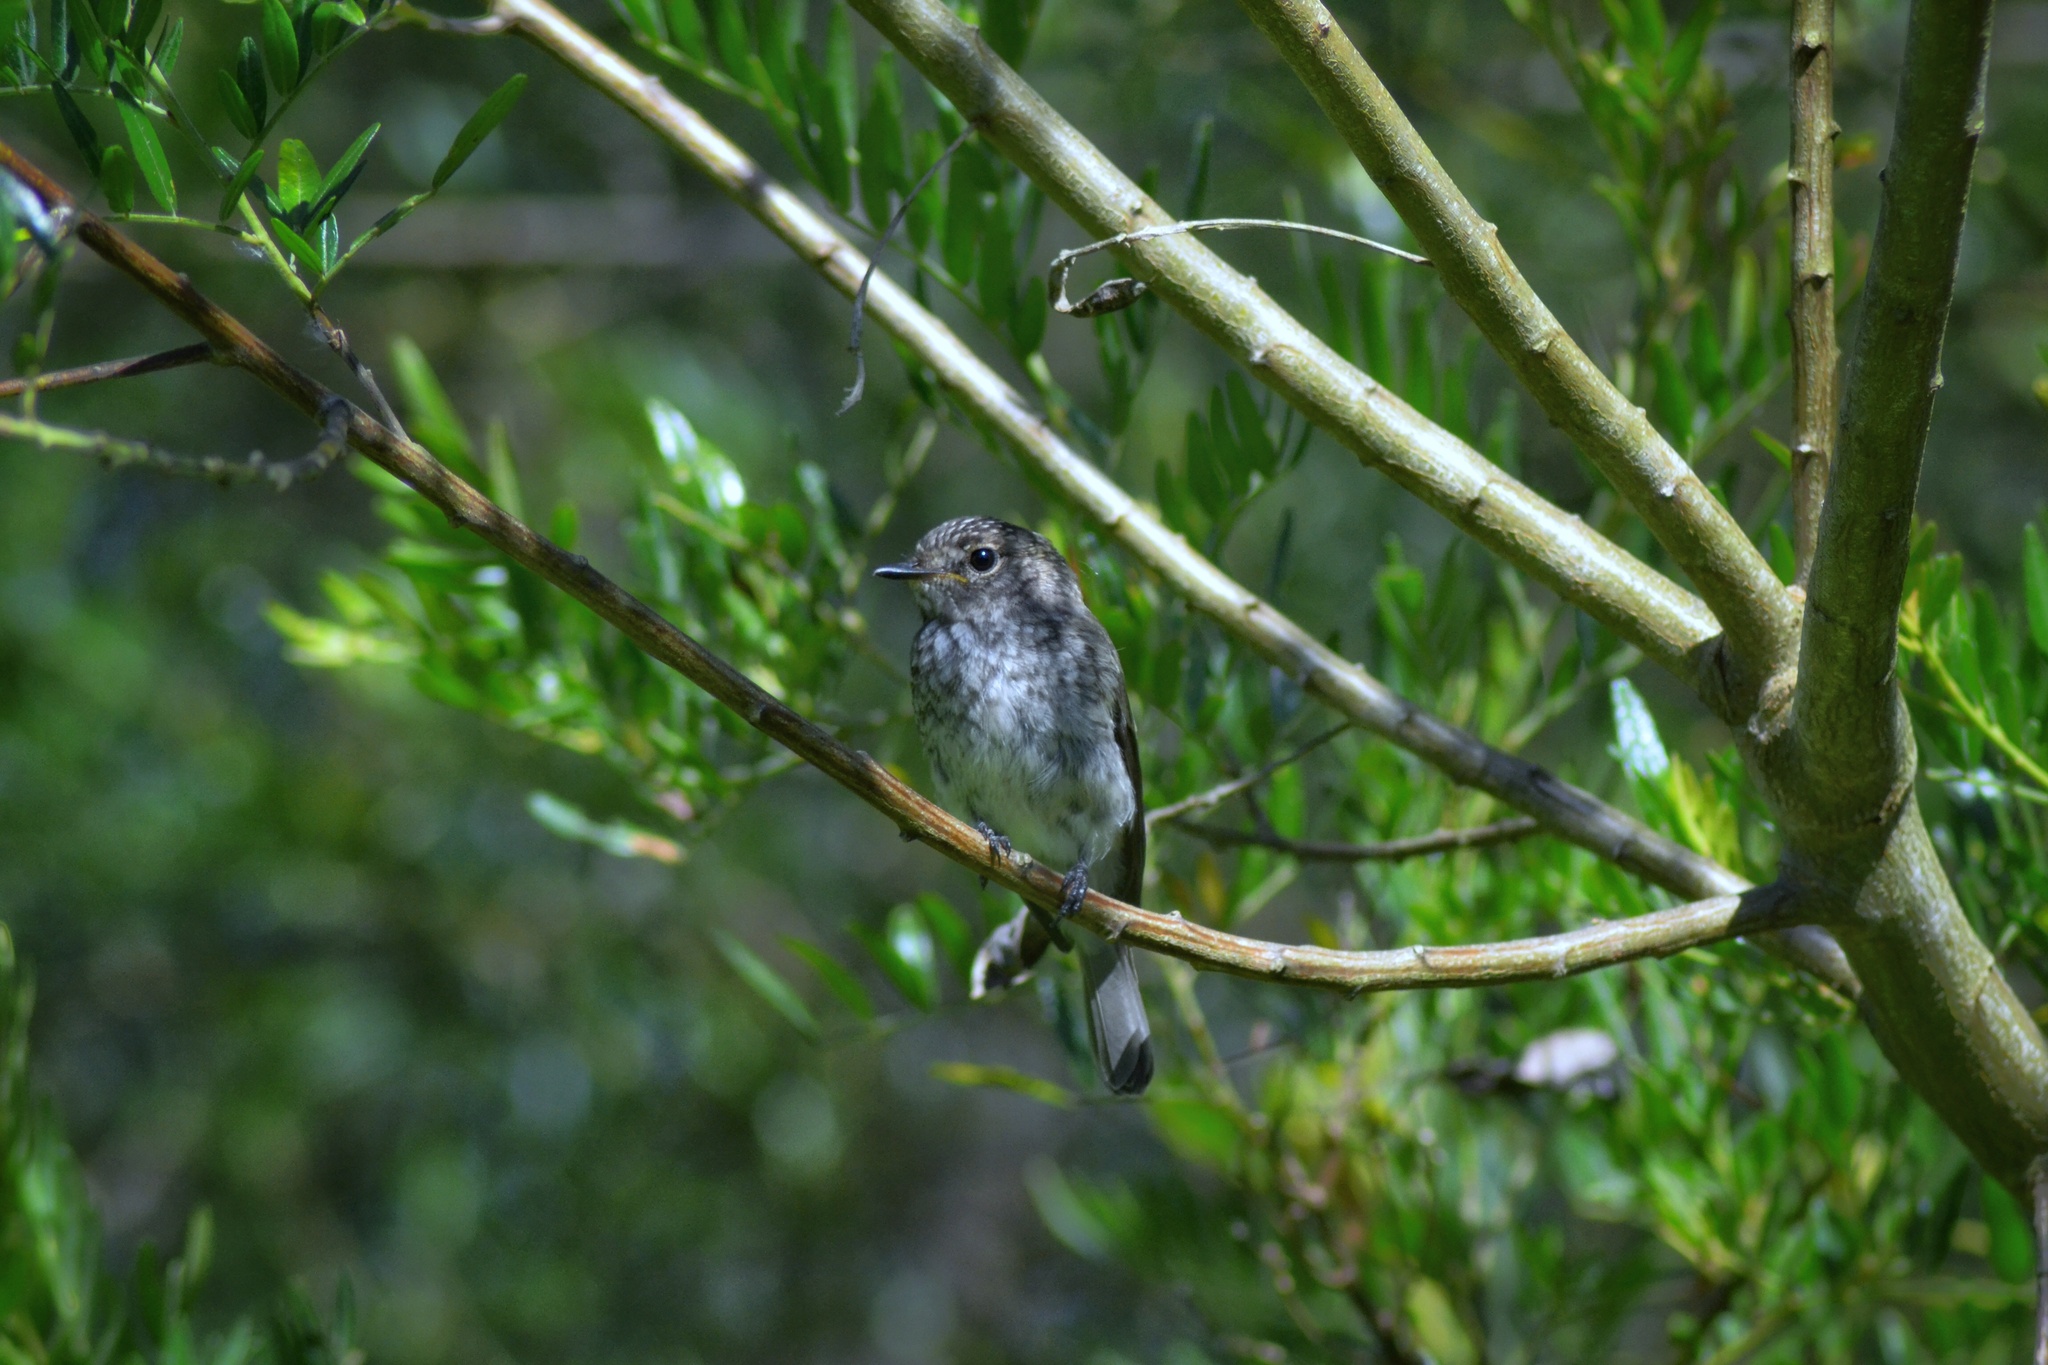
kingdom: Animalia
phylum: Chordata
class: Aves
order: Passeriformes
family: Muscicapidae
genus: Muscicapa
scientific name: Muscicapa adusta
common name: African dusky flycatcher
